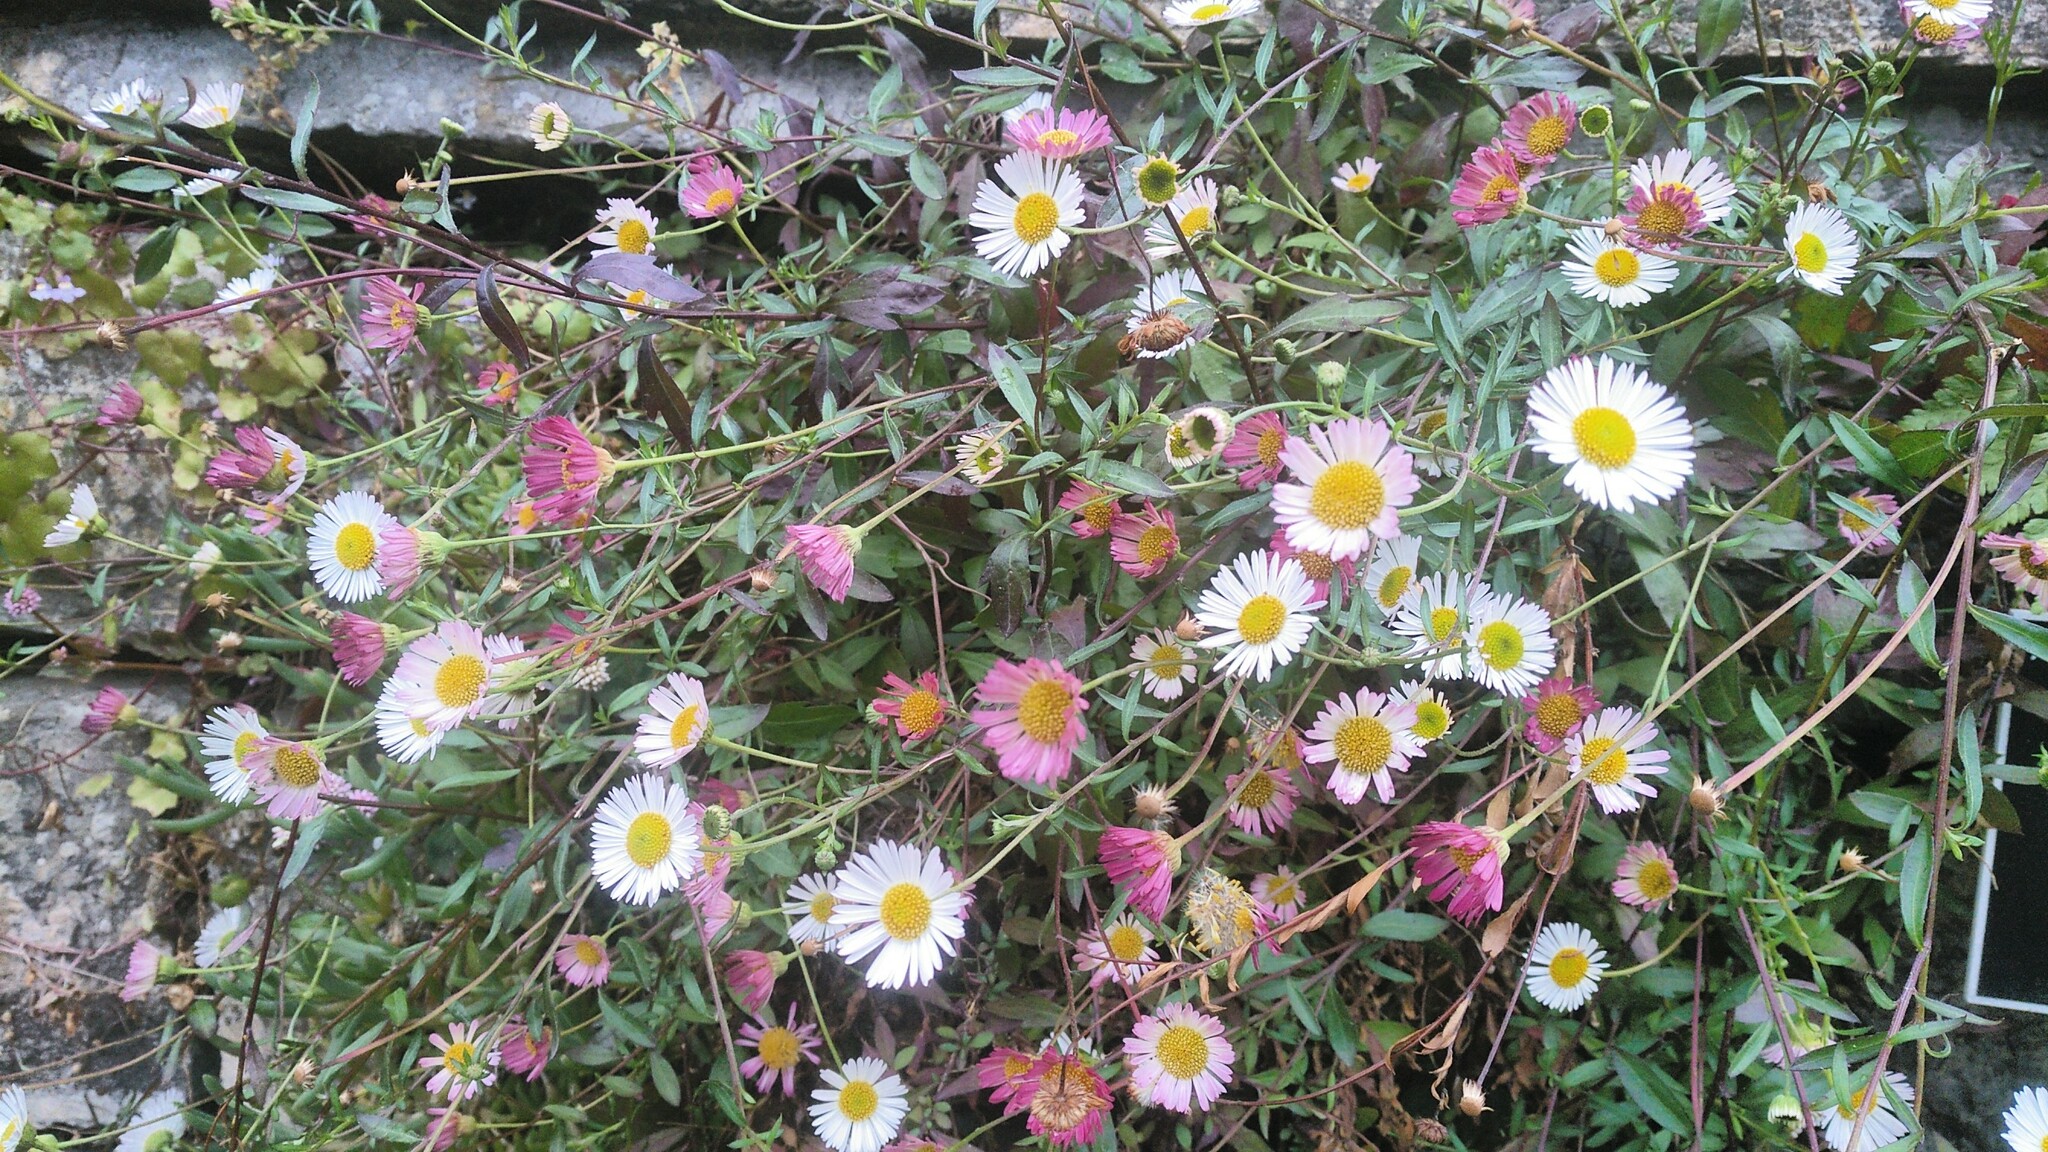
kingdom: Plantae
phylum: Tracheophyta
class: Magnoliopsida
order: Asterales
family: Asteraceae
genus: Erigeron
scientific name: Erigeron karvinskianus
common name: Mexican fleabane
